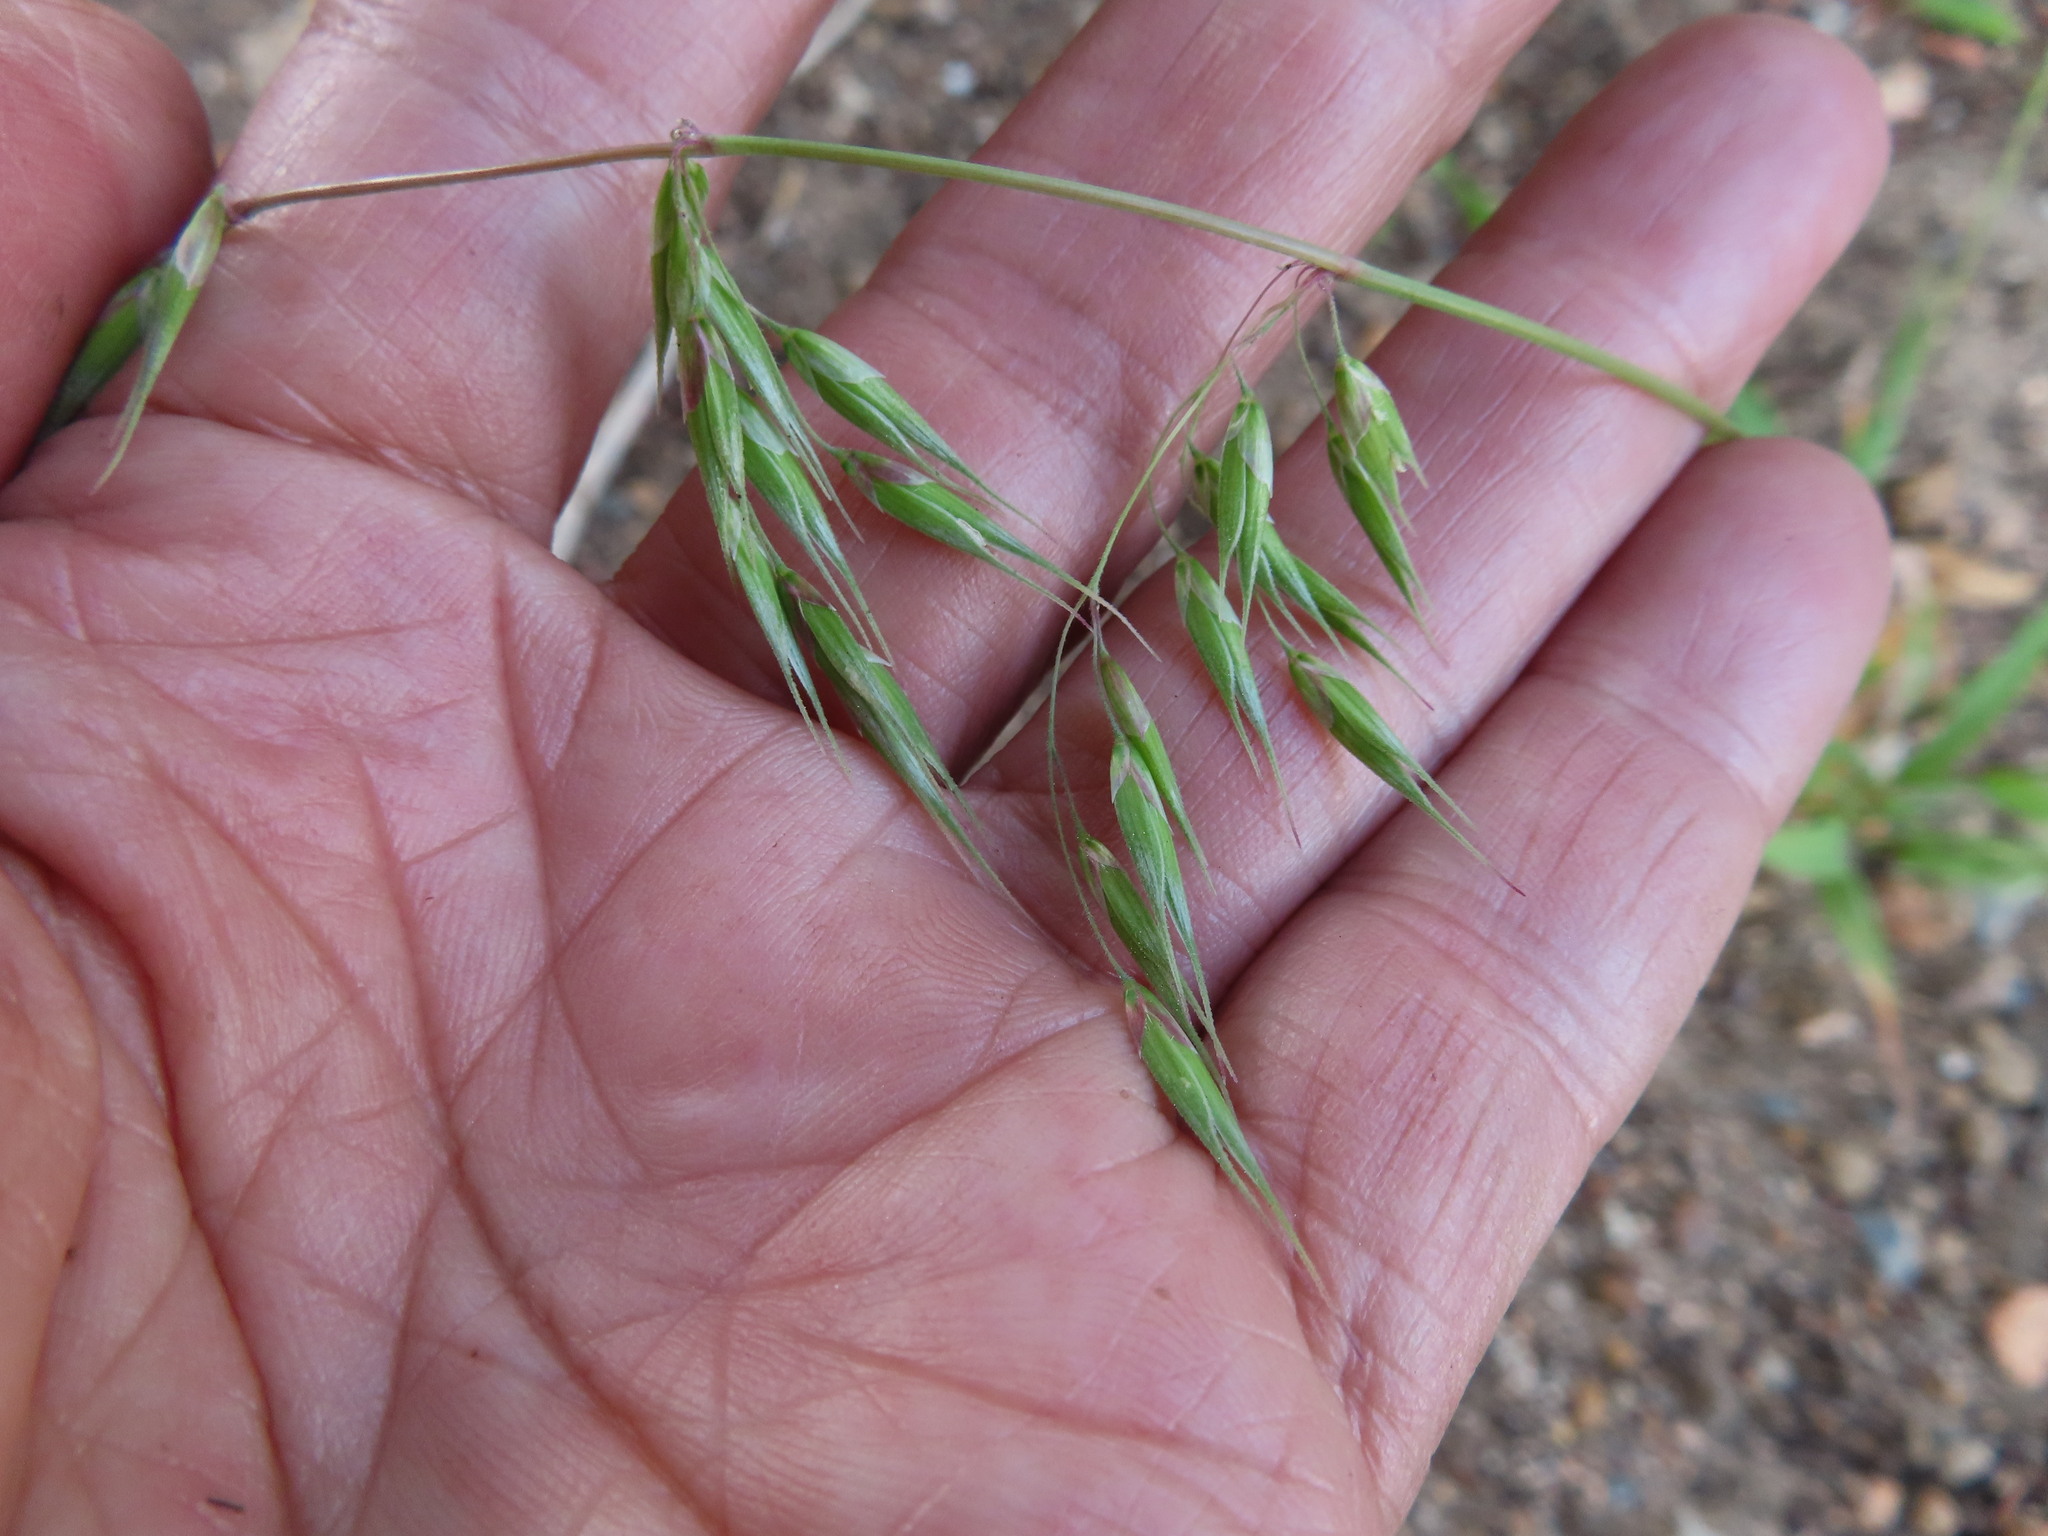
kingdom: Plantae
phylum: Tracheophyta
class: Liliopsida
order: Poales
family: Poaceae
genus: Ehrharta
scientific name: Ehrharta longiflora
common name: Longflowered veldtgrass
